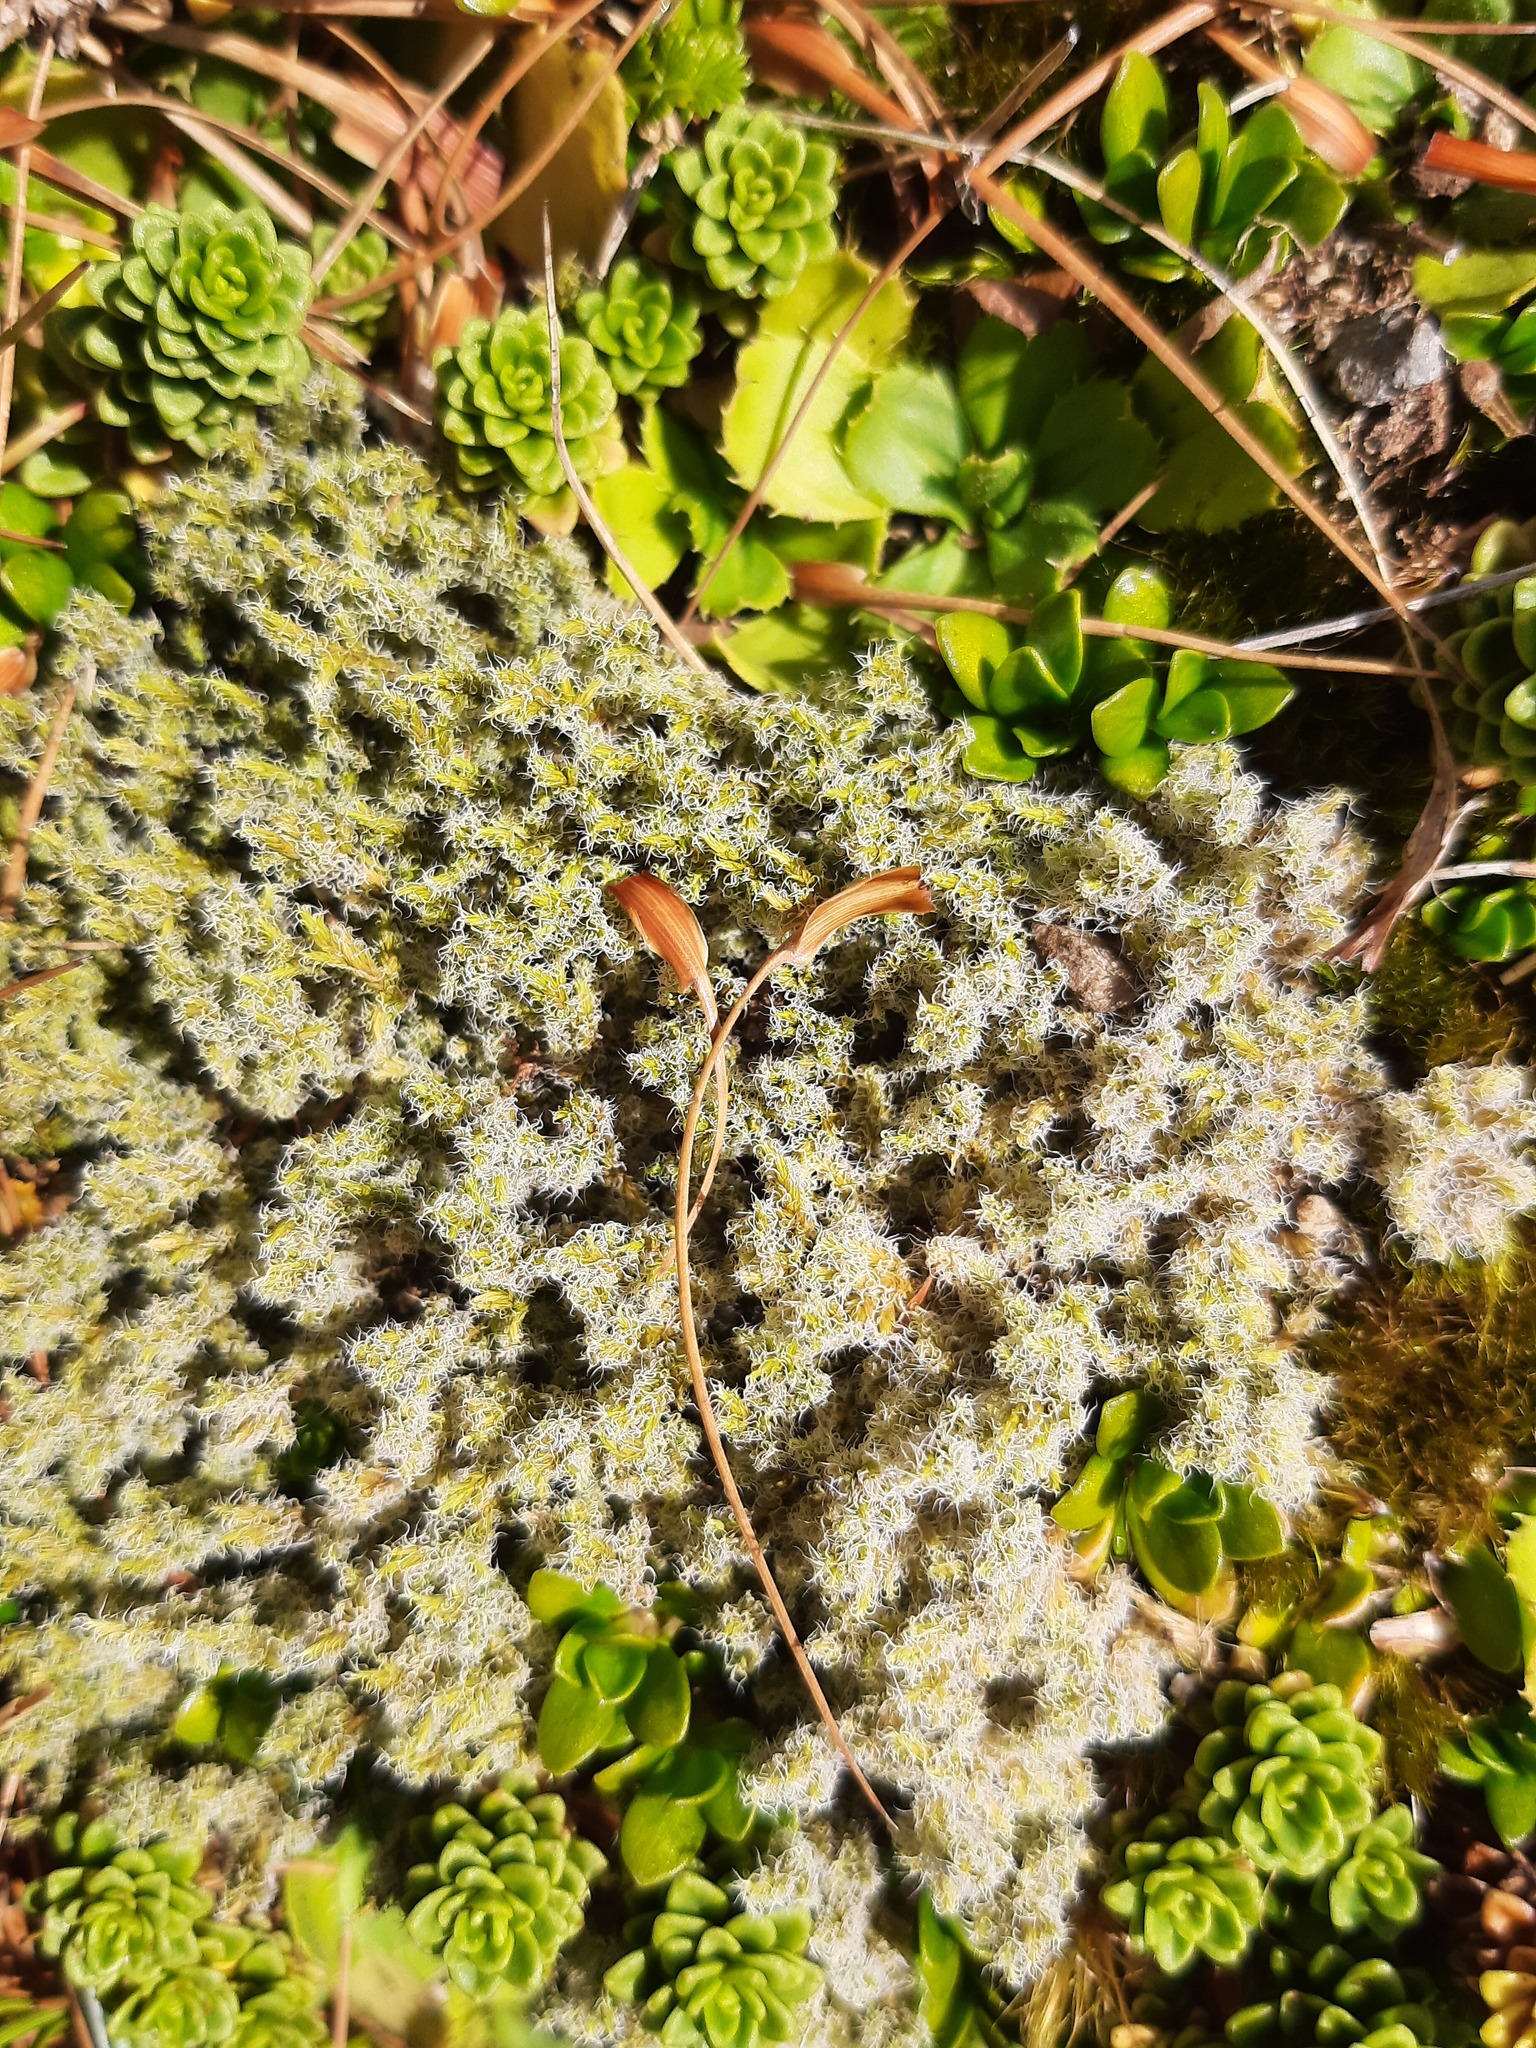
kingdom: Plantae
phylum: Bryophyta
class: Bryopsida
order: Grimmiales
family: Grimmiaceae
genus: Racomitrium
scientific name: Racomitrium lanuginosum
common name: Hoary rock moss
